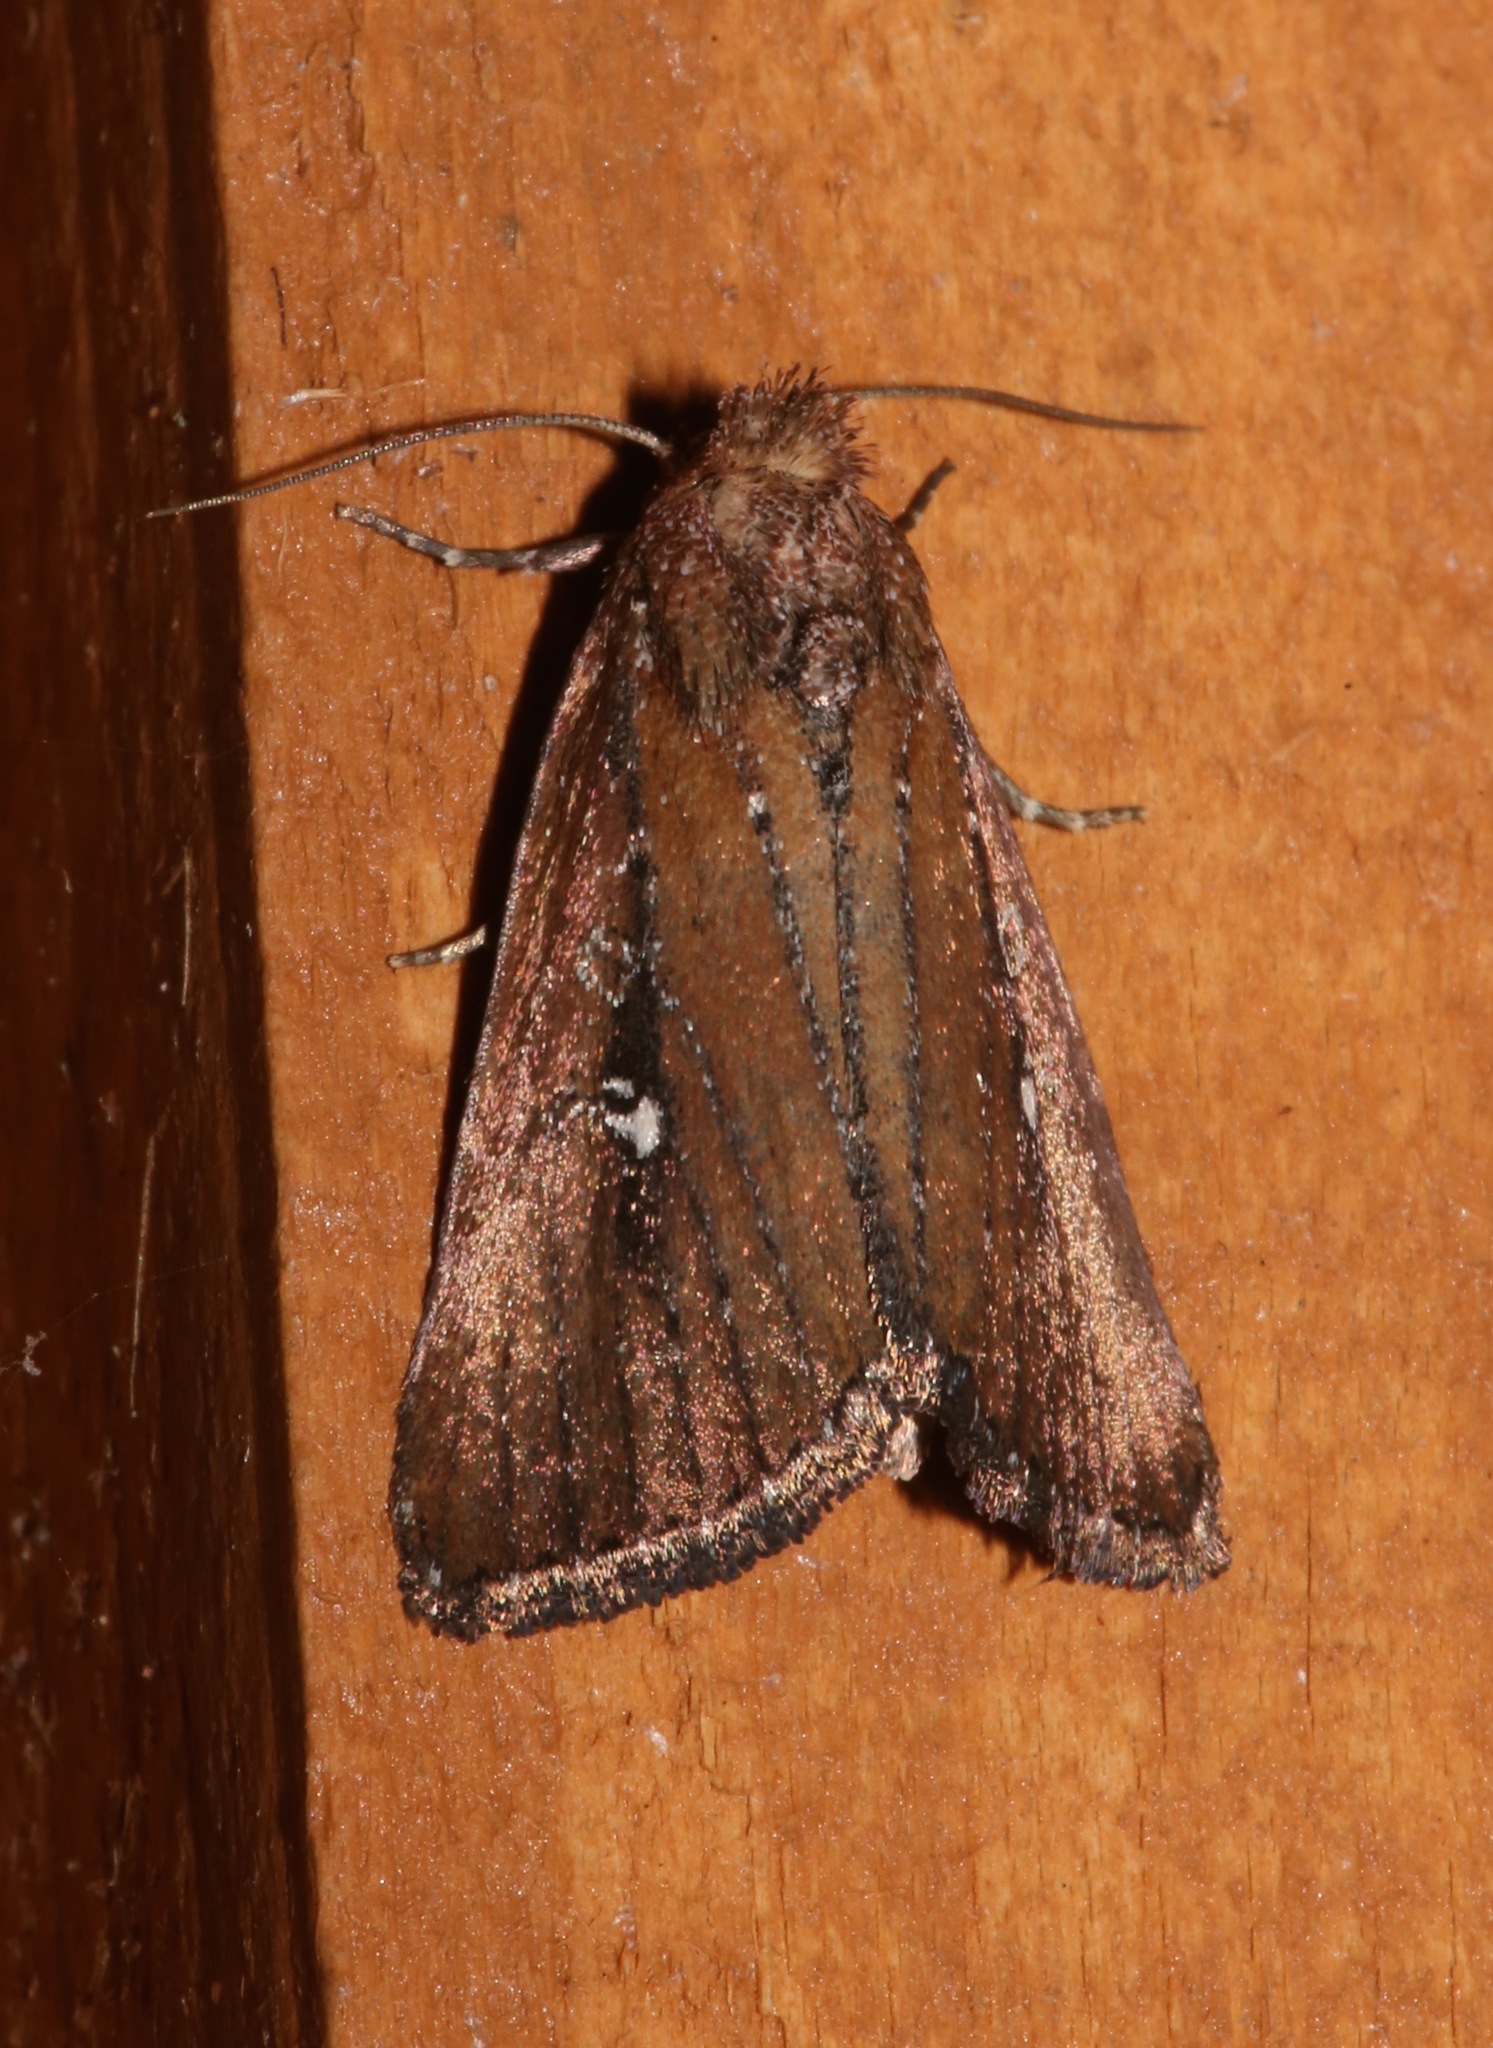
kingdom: Animalia
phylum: Arthropoda
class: Insecta
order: Lepidoptera
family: Noctuidae
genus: Condica
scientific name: Condica videns
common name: White-dotted groundling
